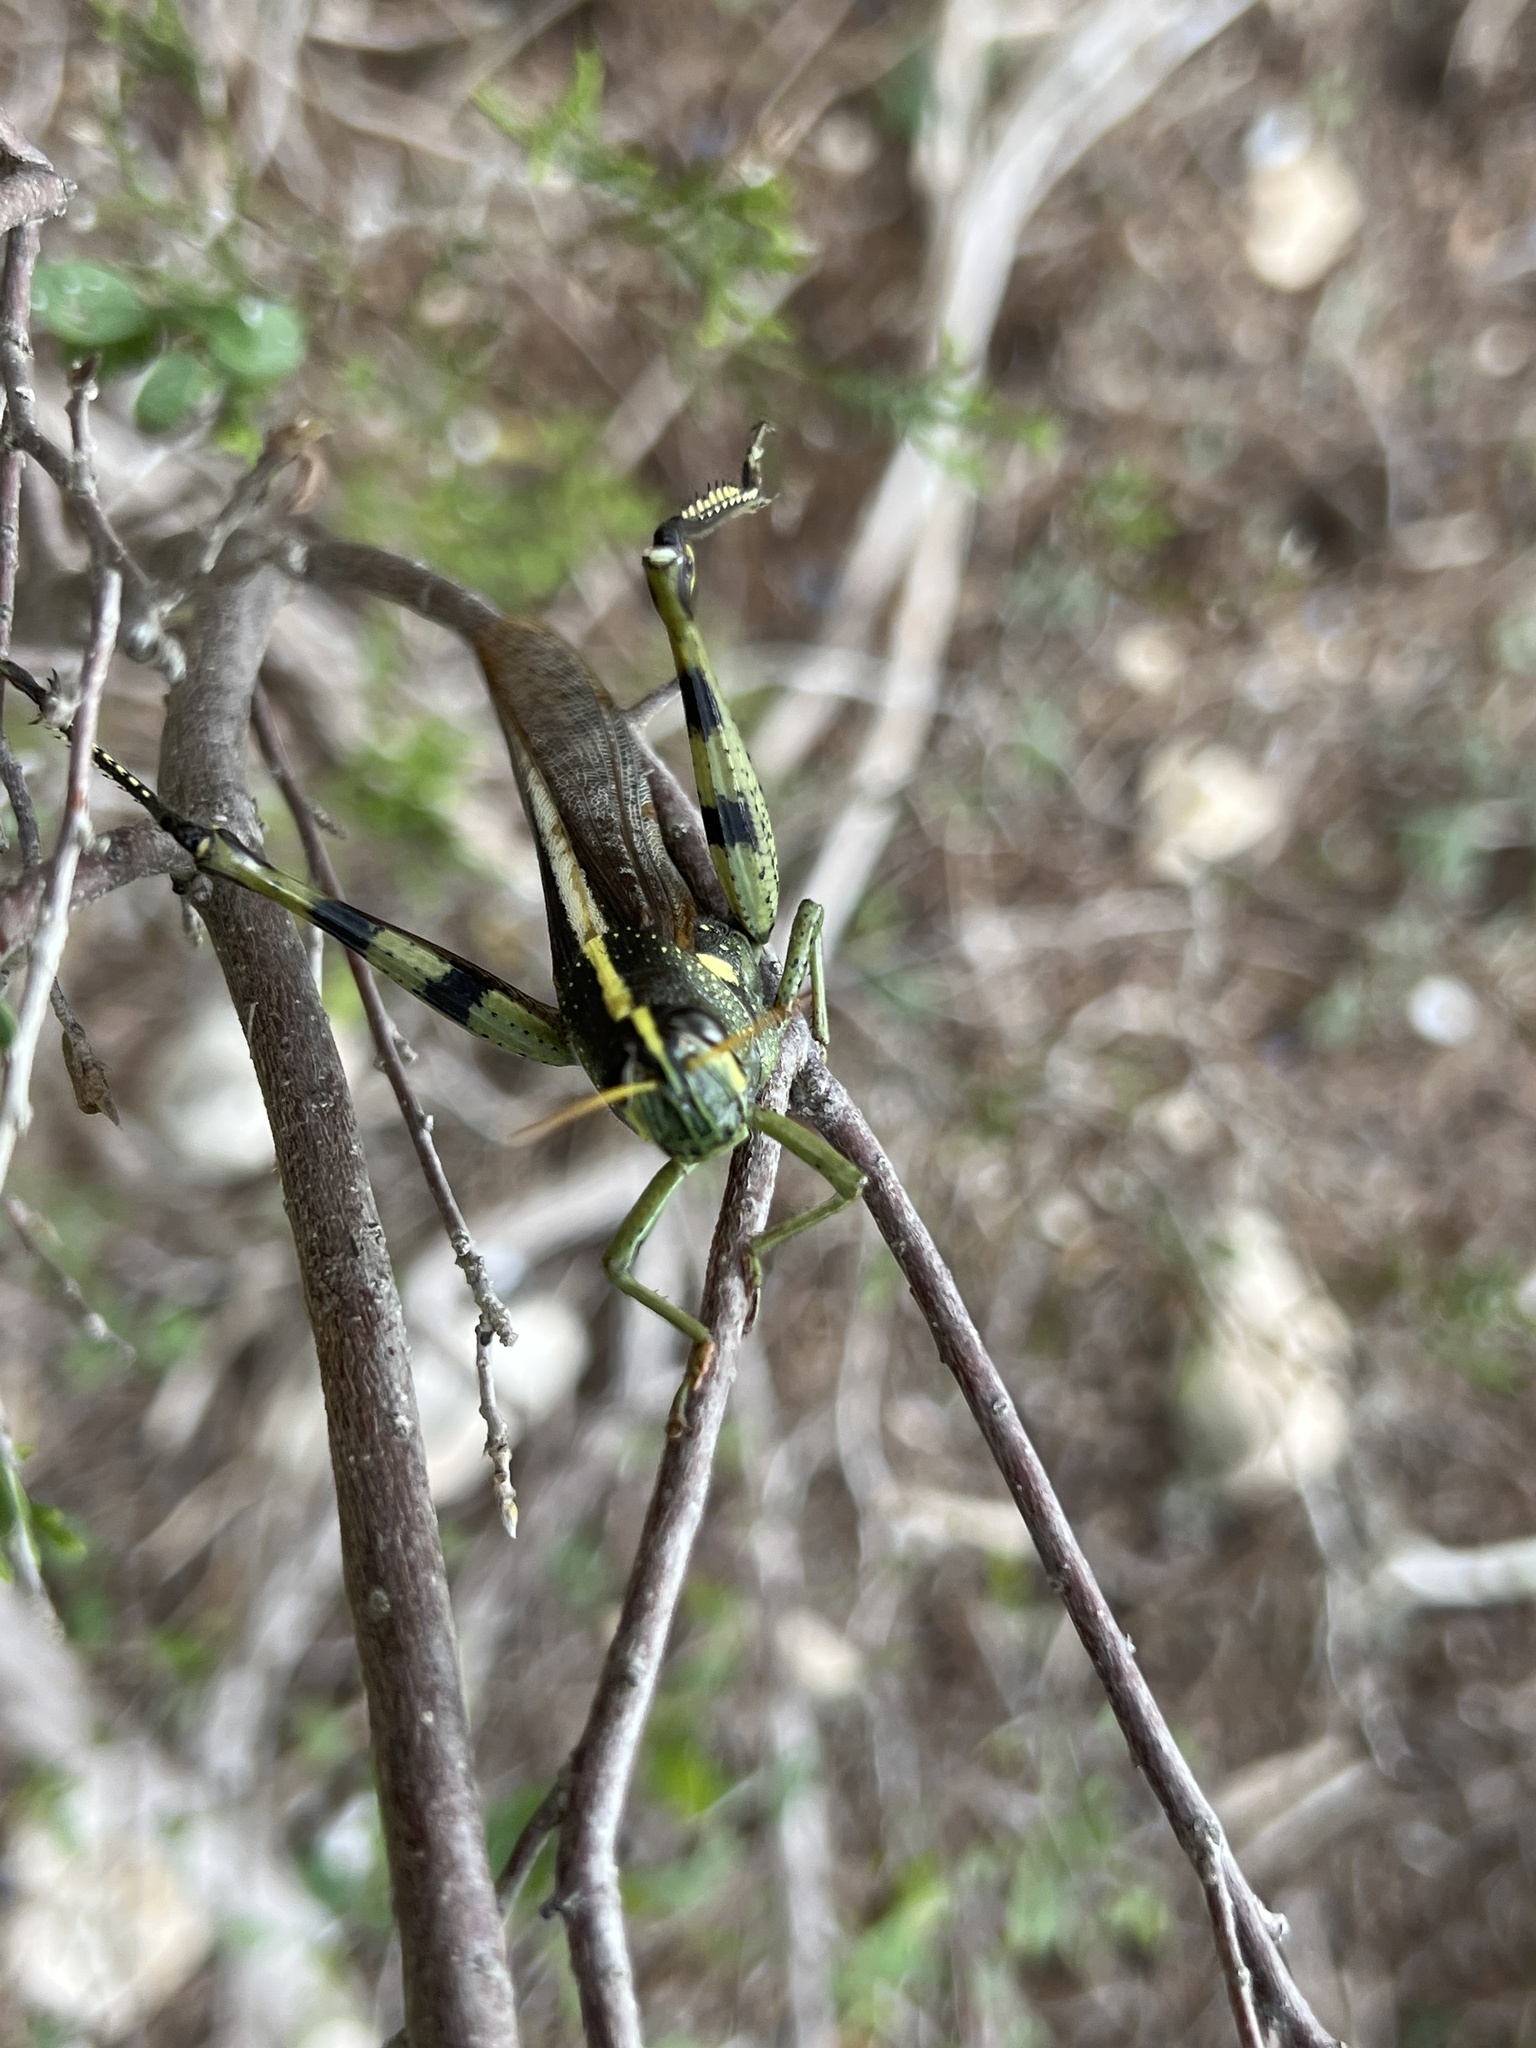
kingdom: Animalia
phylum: Arthropoda
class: Insecta
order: Orthoptera
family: Acrididae
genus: Schistocerca
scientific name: Schistocerca obscura
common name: Obscure bird grasshopper
